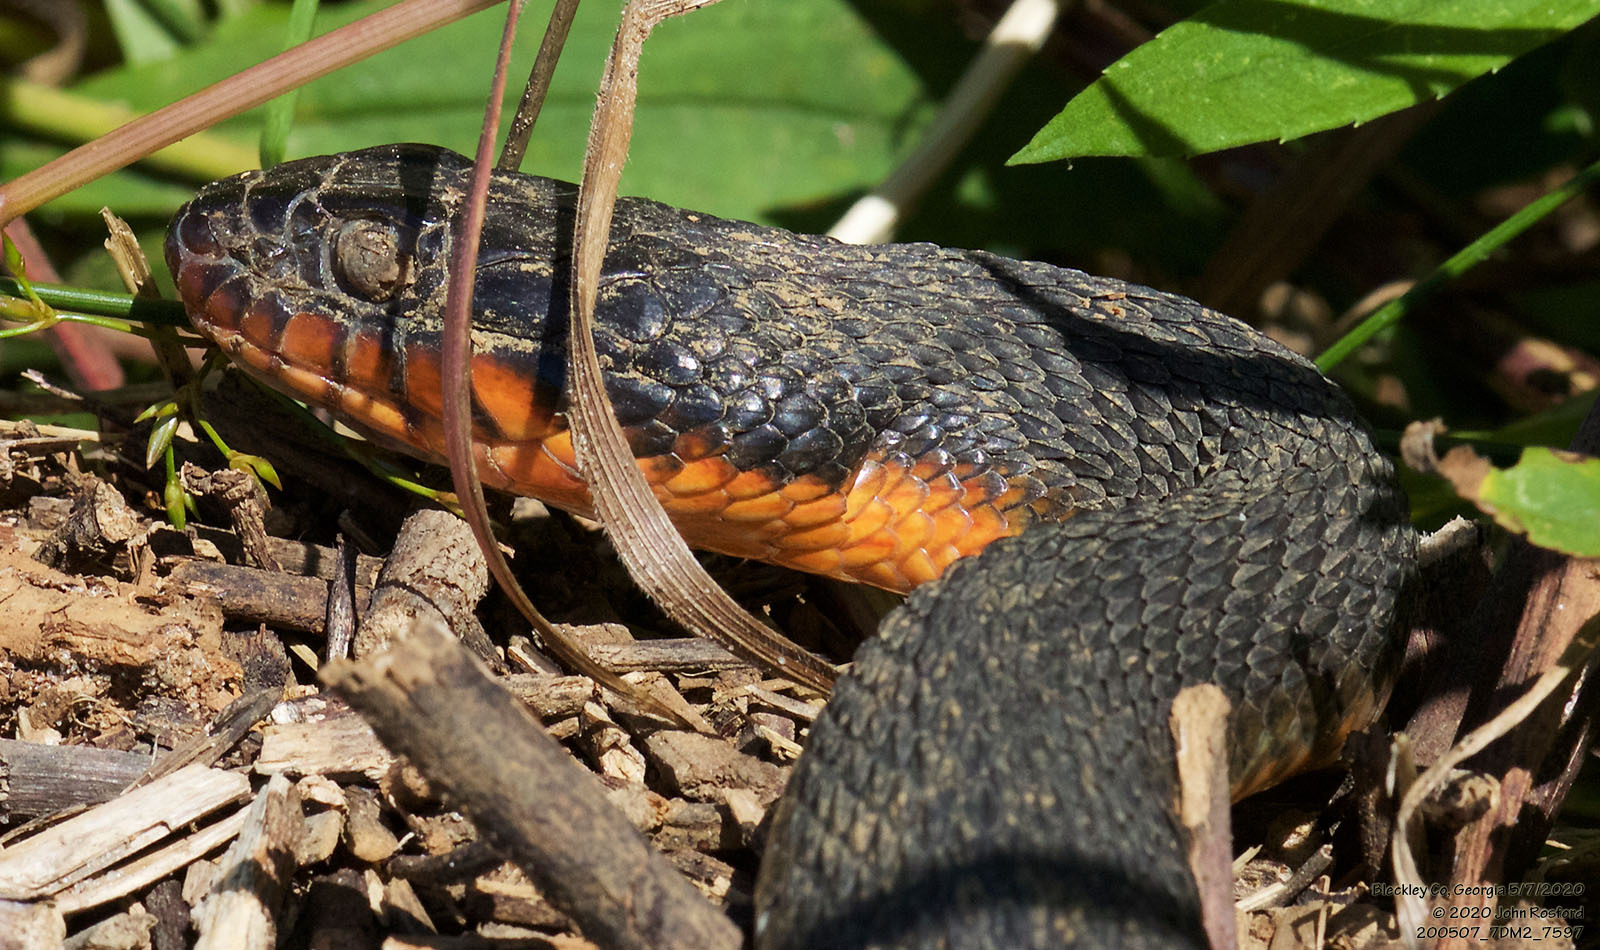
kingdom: Animalia
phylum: Chordata
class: Squamata
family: Colubridae
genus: Nerodia
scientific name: Nerodia erythrogaster
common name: Plainbelly water snake
